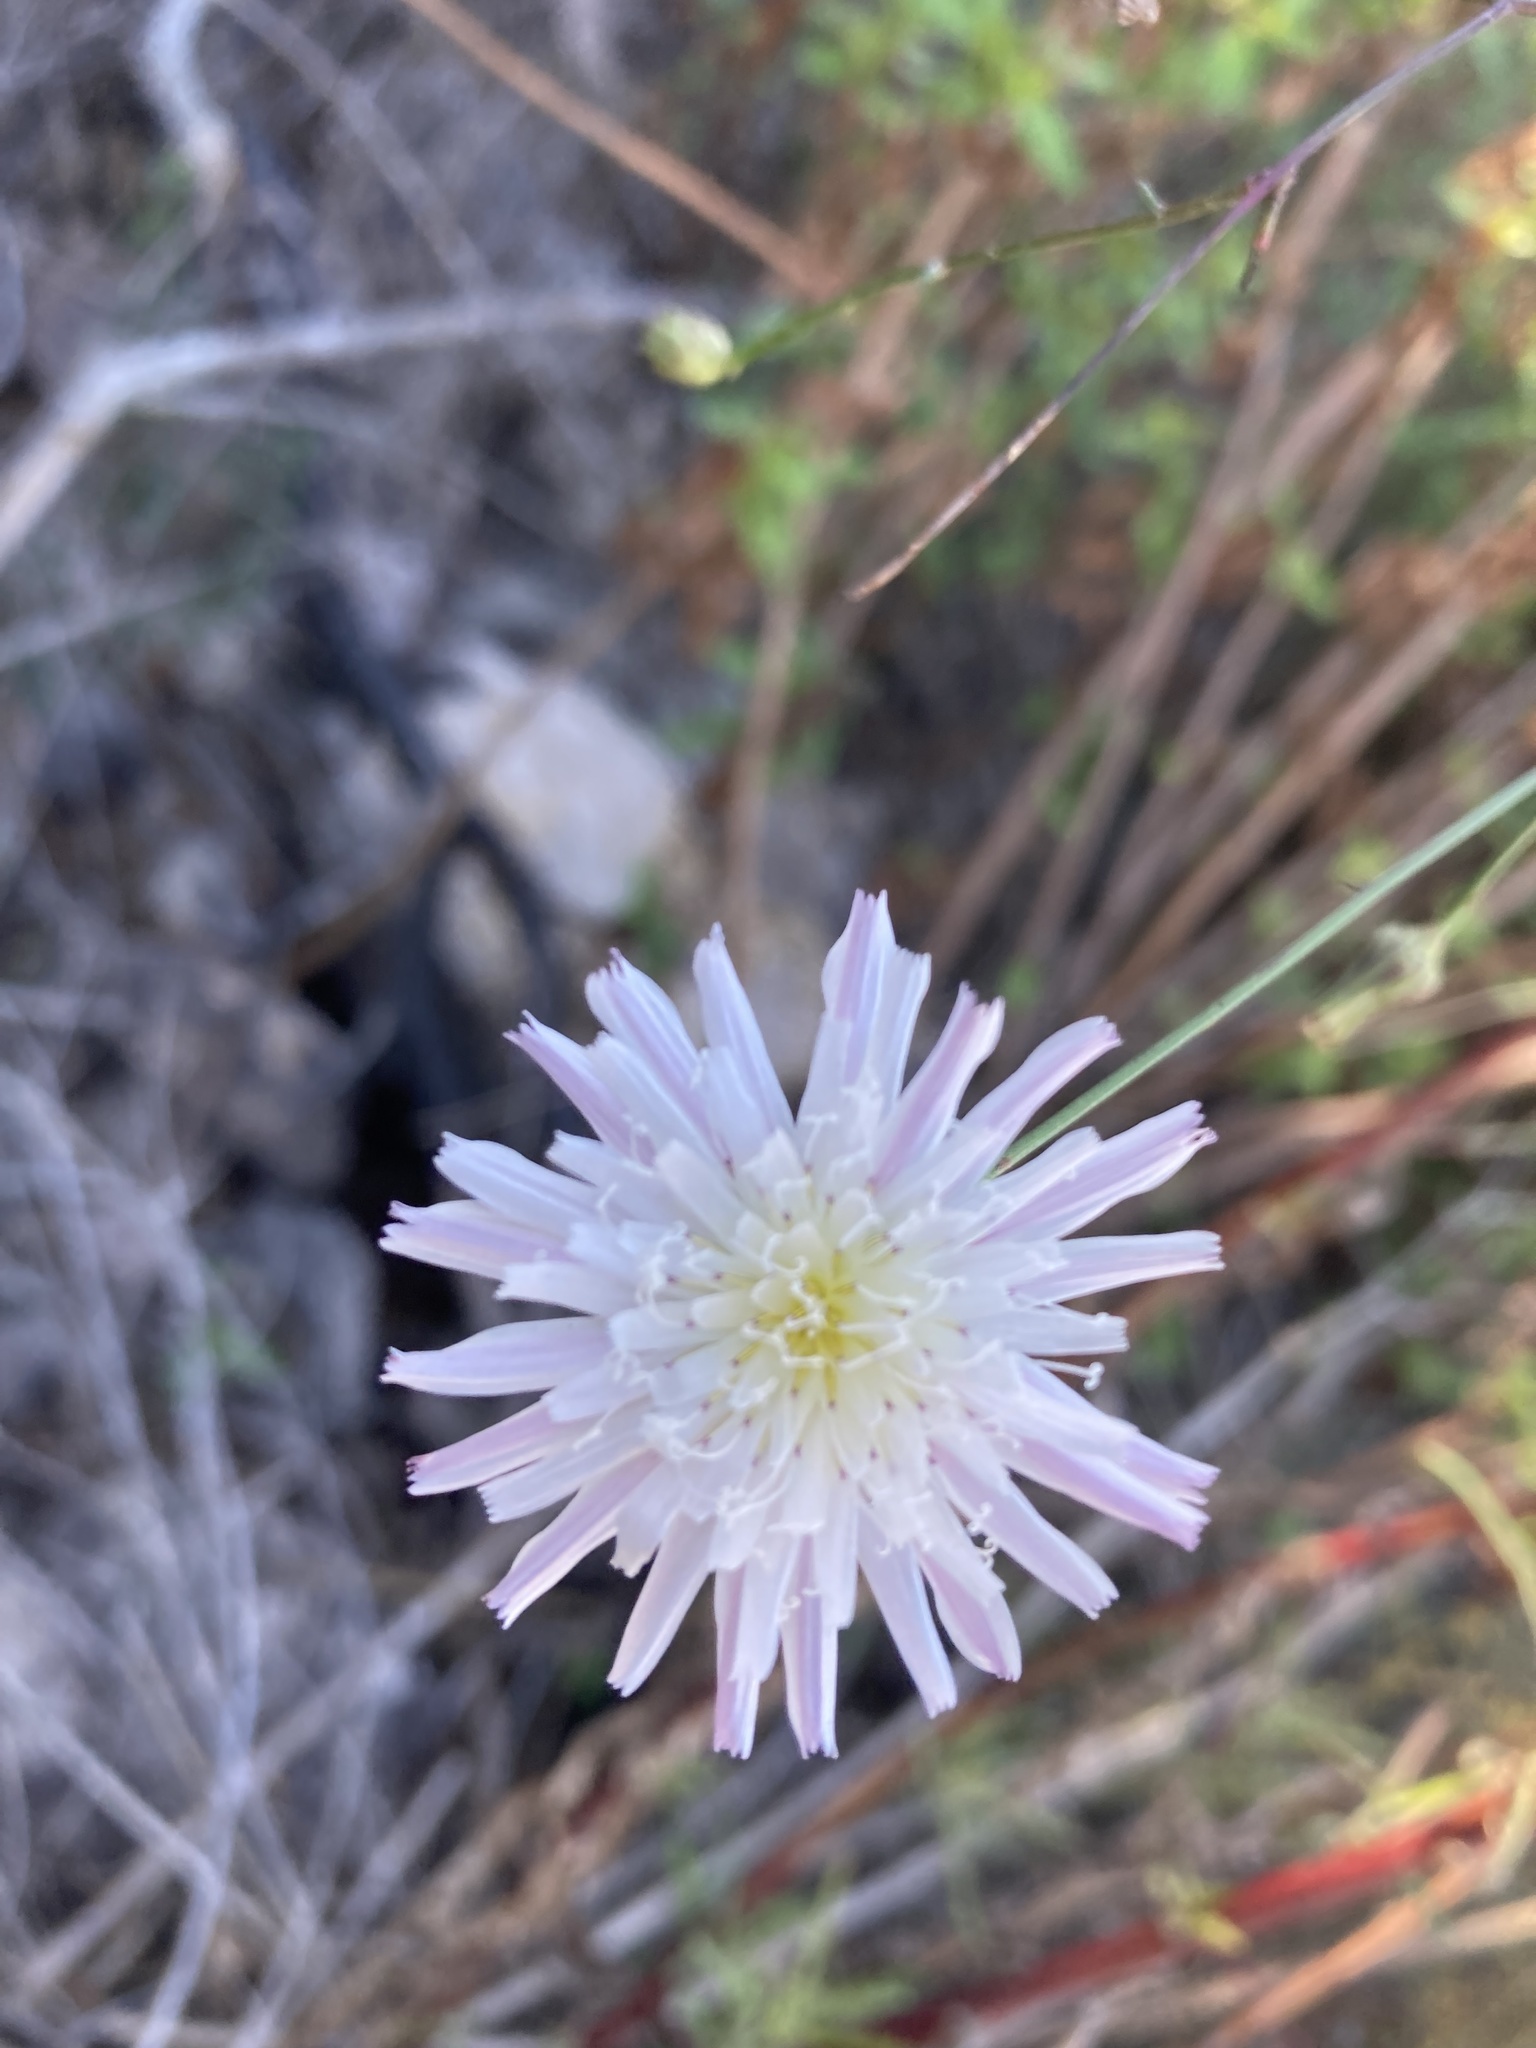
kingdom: Plantae
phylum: Tracheophyta
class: Magnoliopsida
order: Asterales
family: Asteraceae
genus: Malacothrix
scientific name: Malacothrix saxatilis
